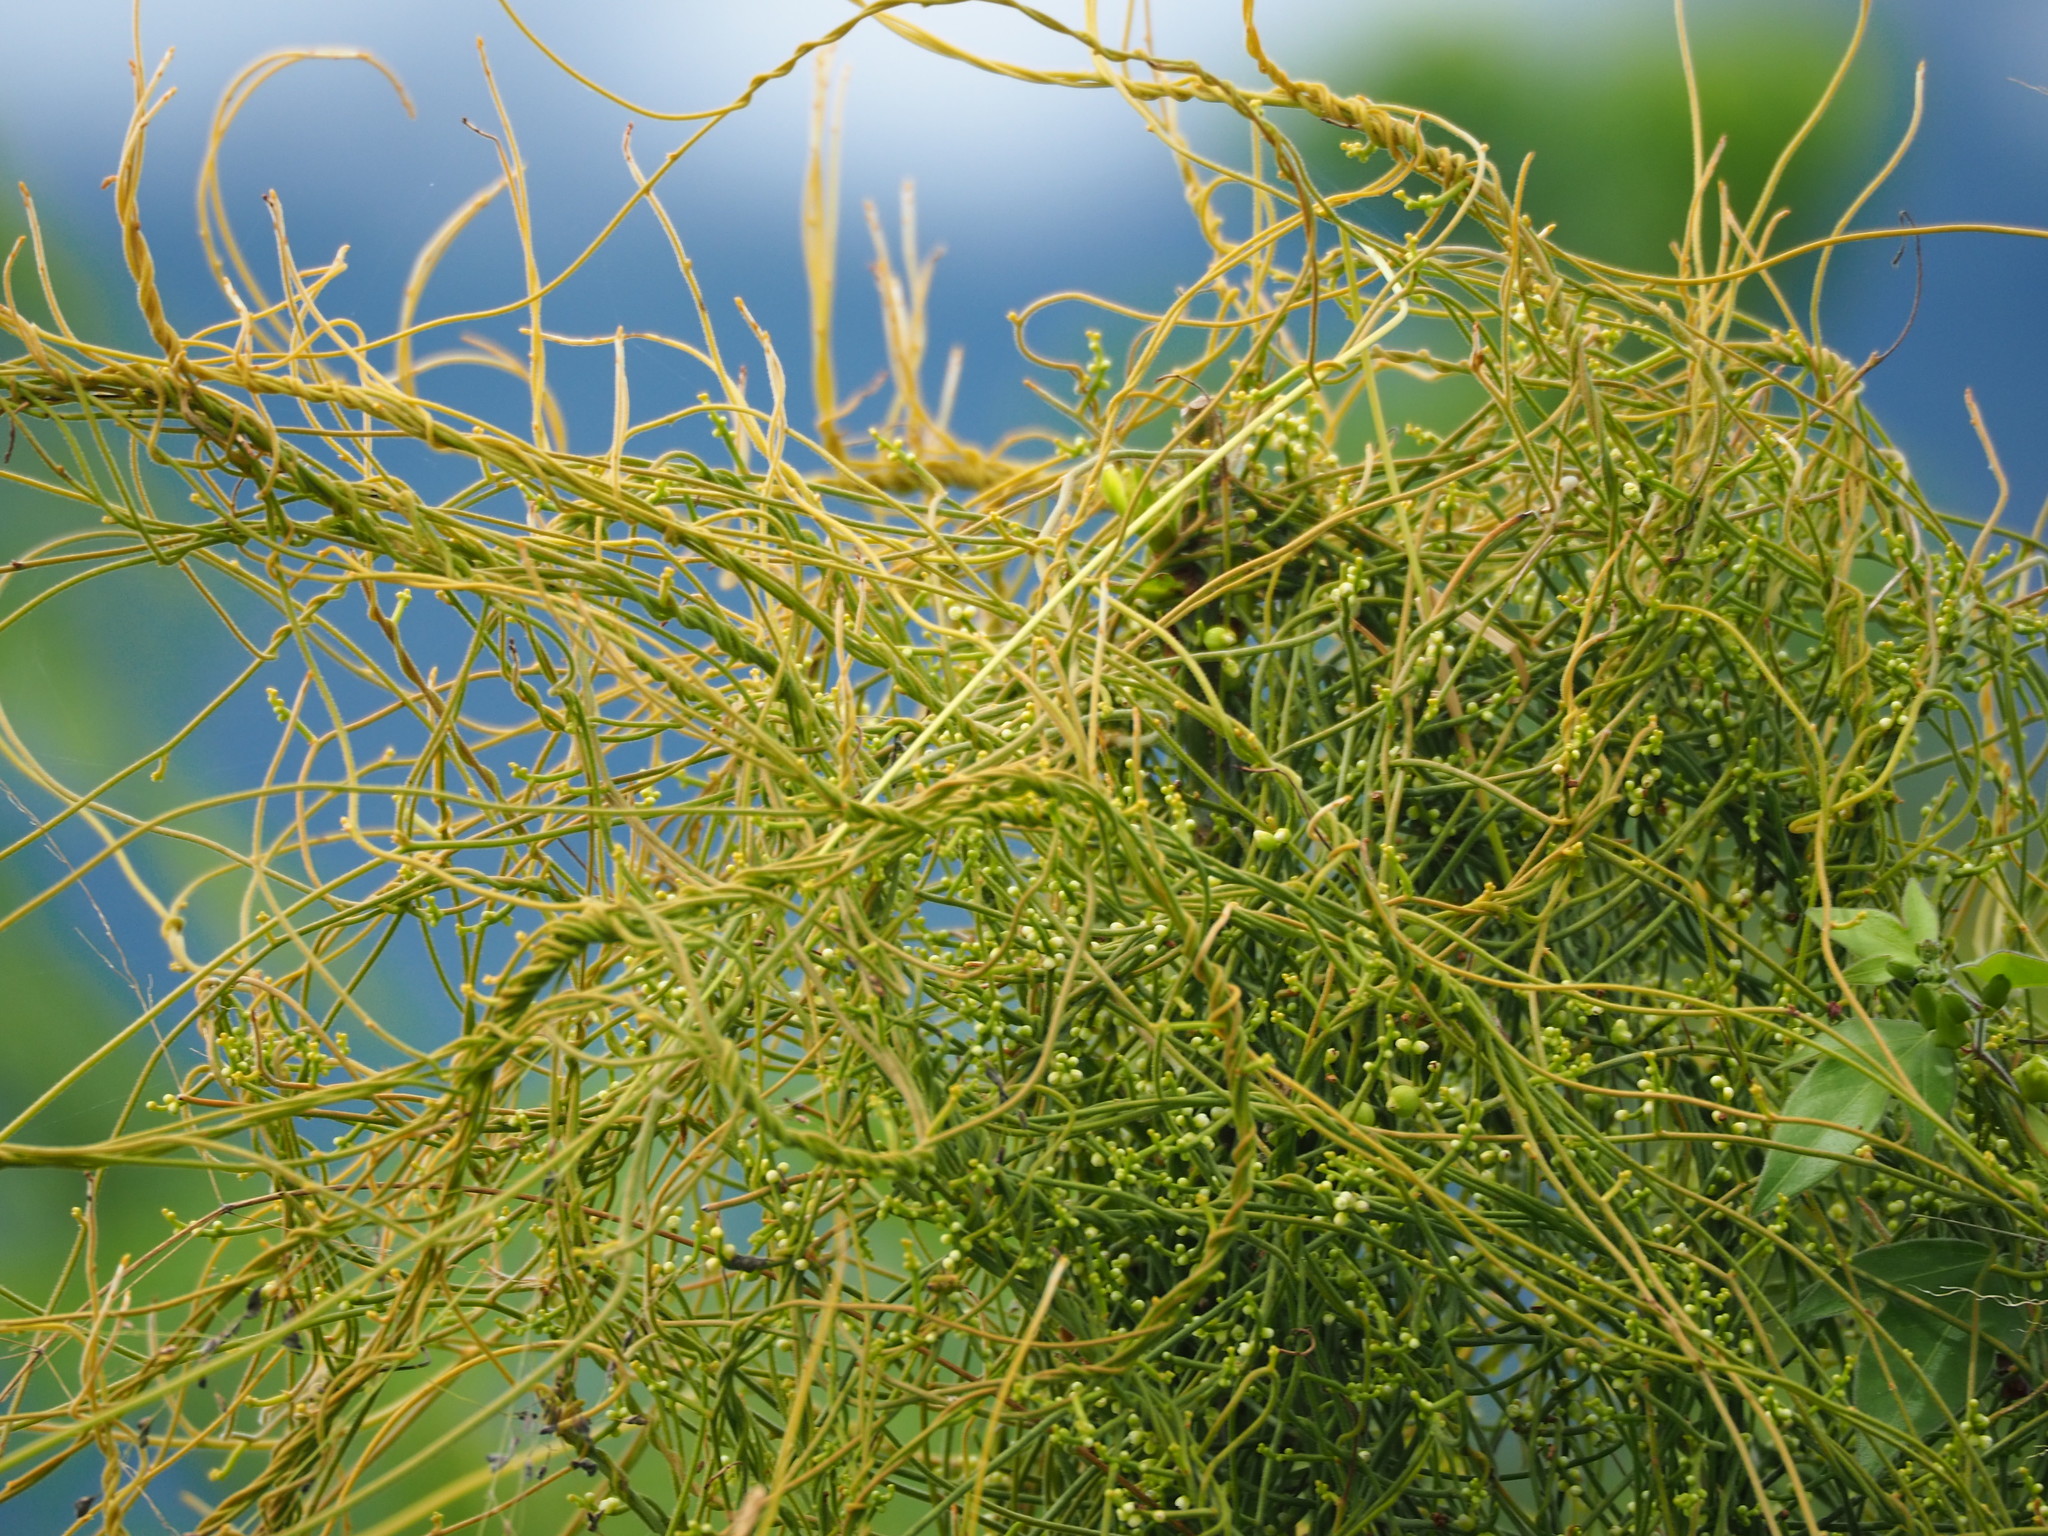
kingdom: Plantae
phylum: Tracheophyta
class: Magnoliopsida
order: Laurales
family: Lauraceae
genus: Cassytha
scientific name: Cassytha filiformis
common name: Dodder-laurel
